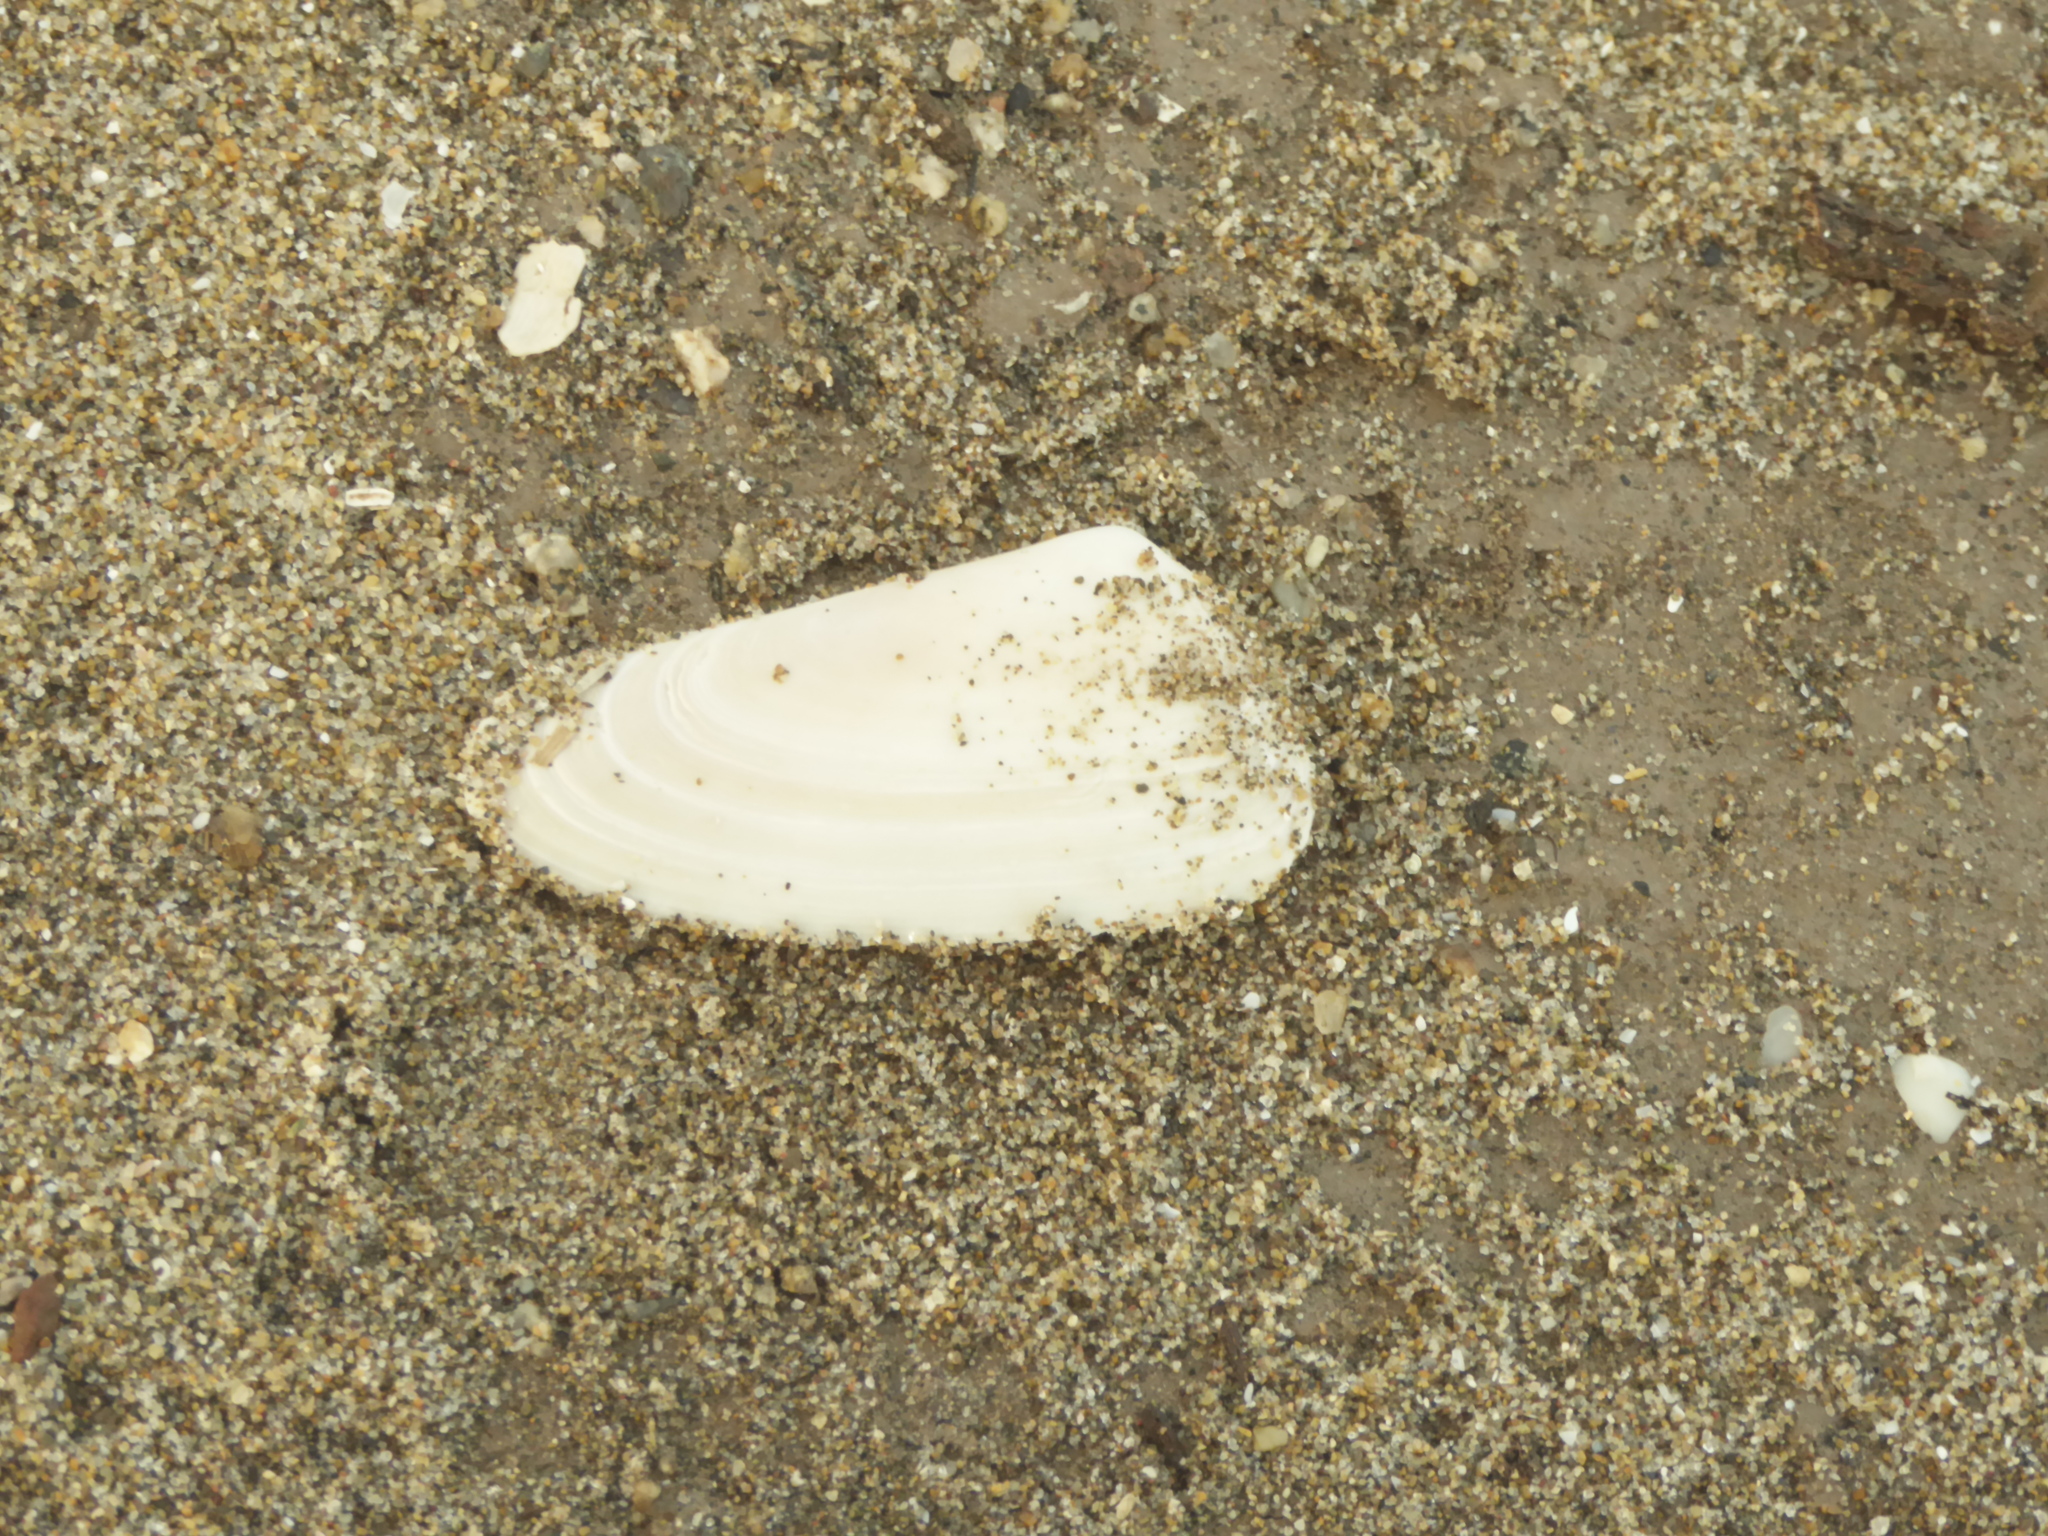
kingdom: Animalia
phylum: Mollusca
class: Bivalvia
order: Venerida
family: Mesodesmatidae
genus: Mesodesma
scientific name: Mesodesma donacium
